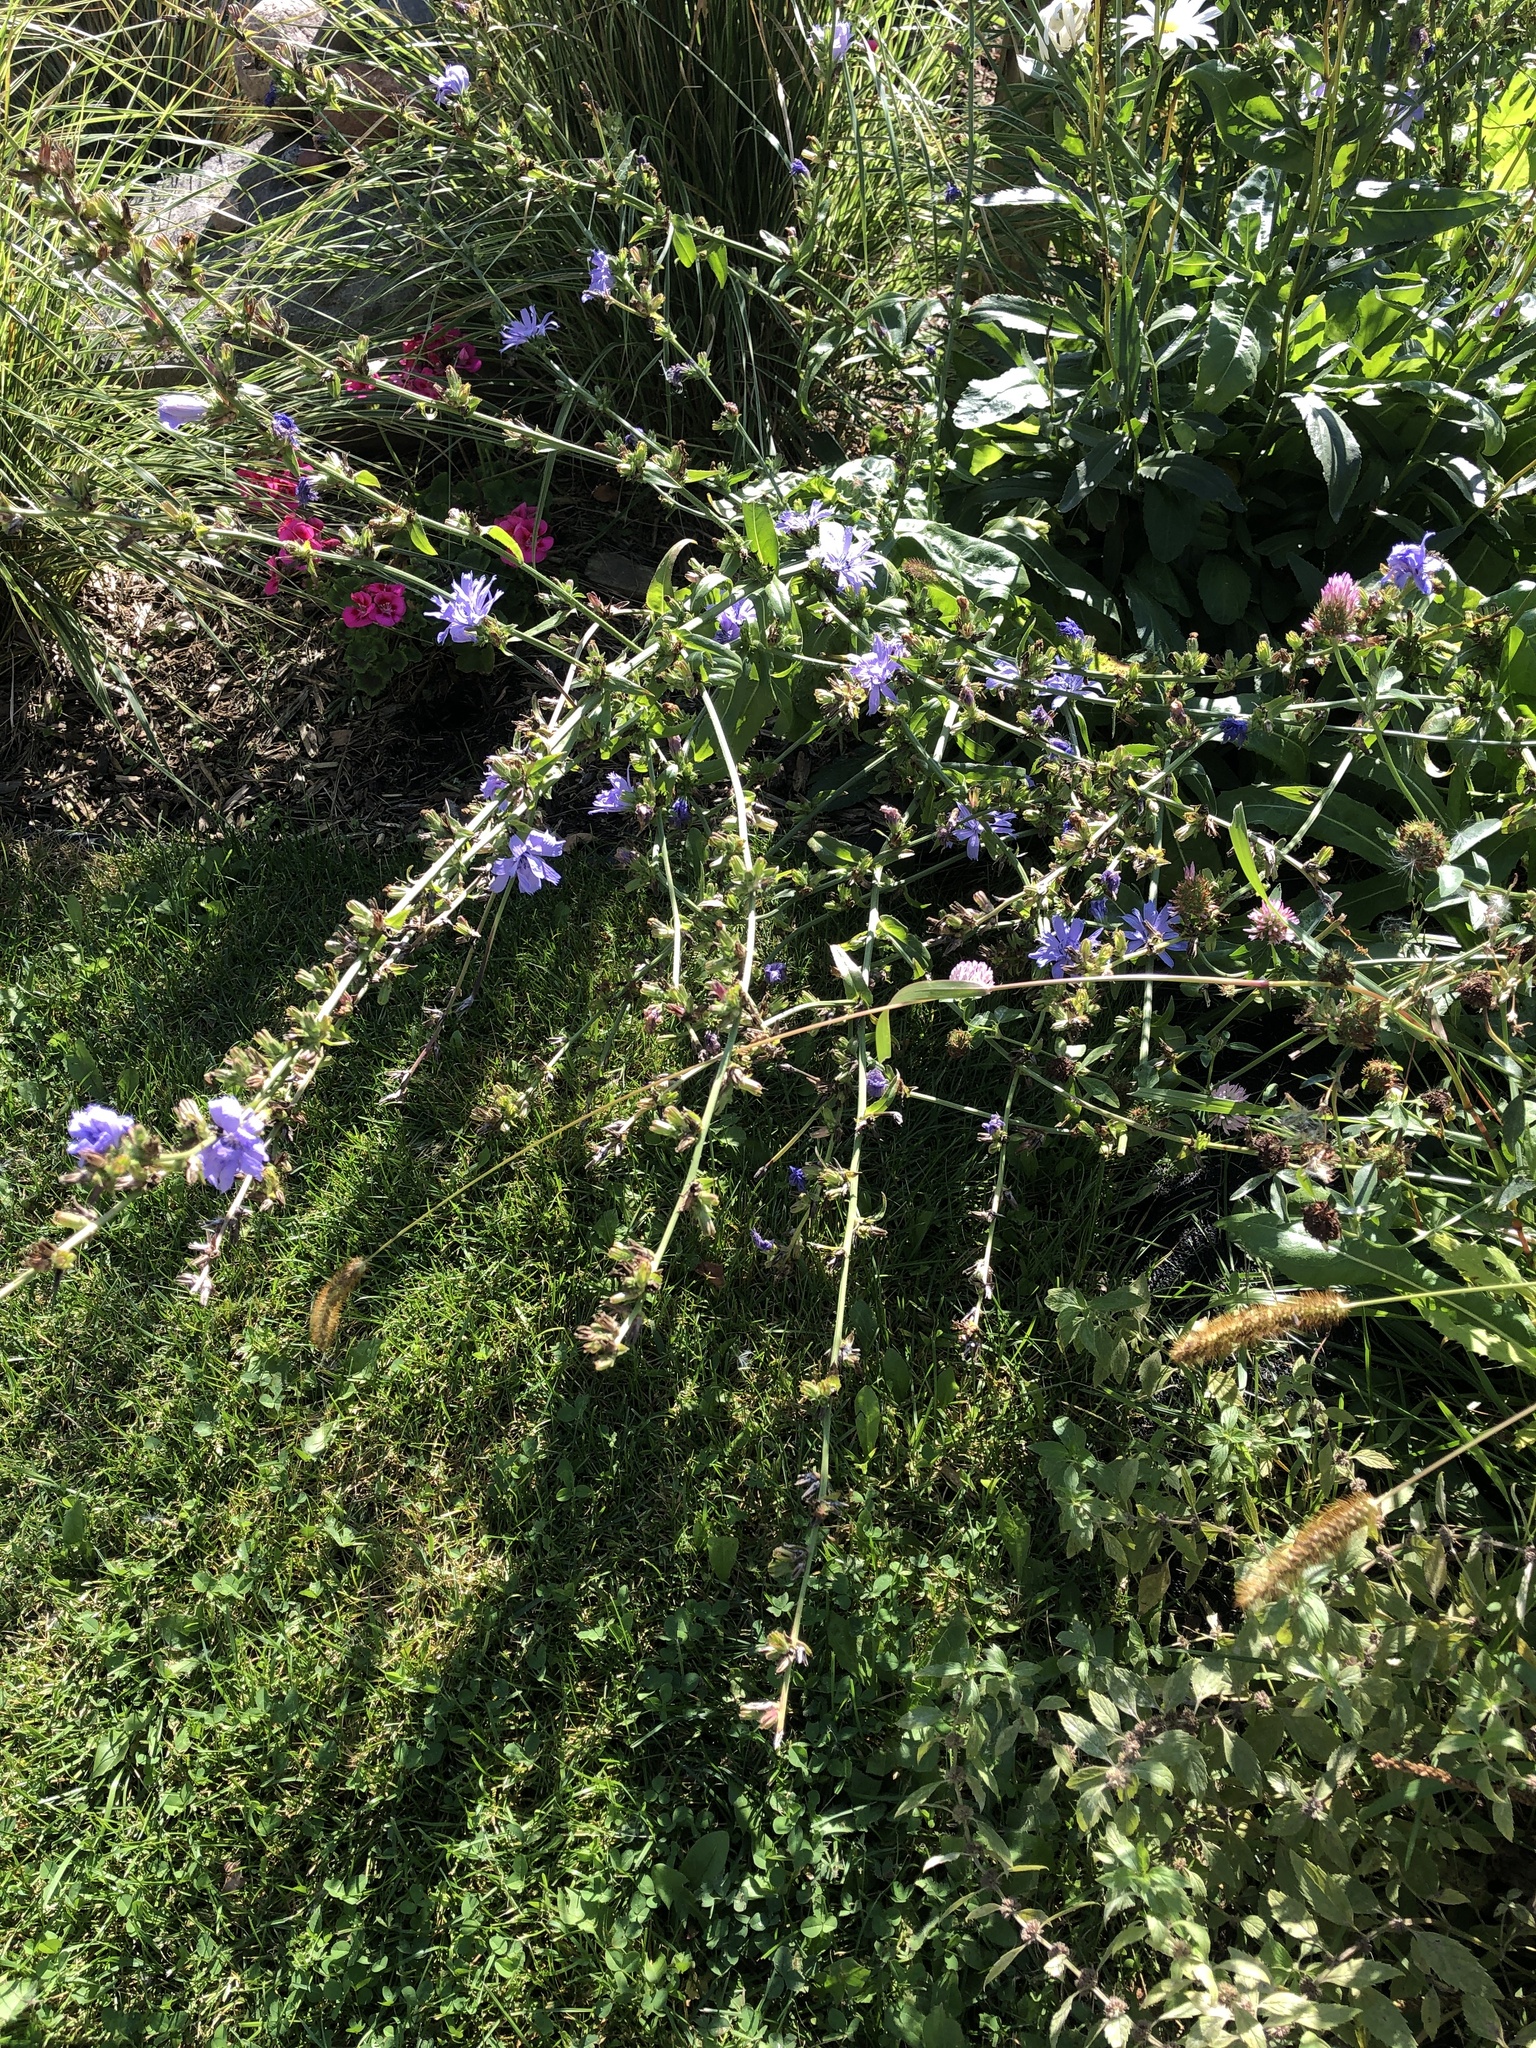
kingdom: Plantae
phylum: Tracheophyta
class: Magnoliopsida
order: Asterales
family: Asteraceae
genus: Cichorium
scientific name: Cichorium intybus
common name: Chicory
